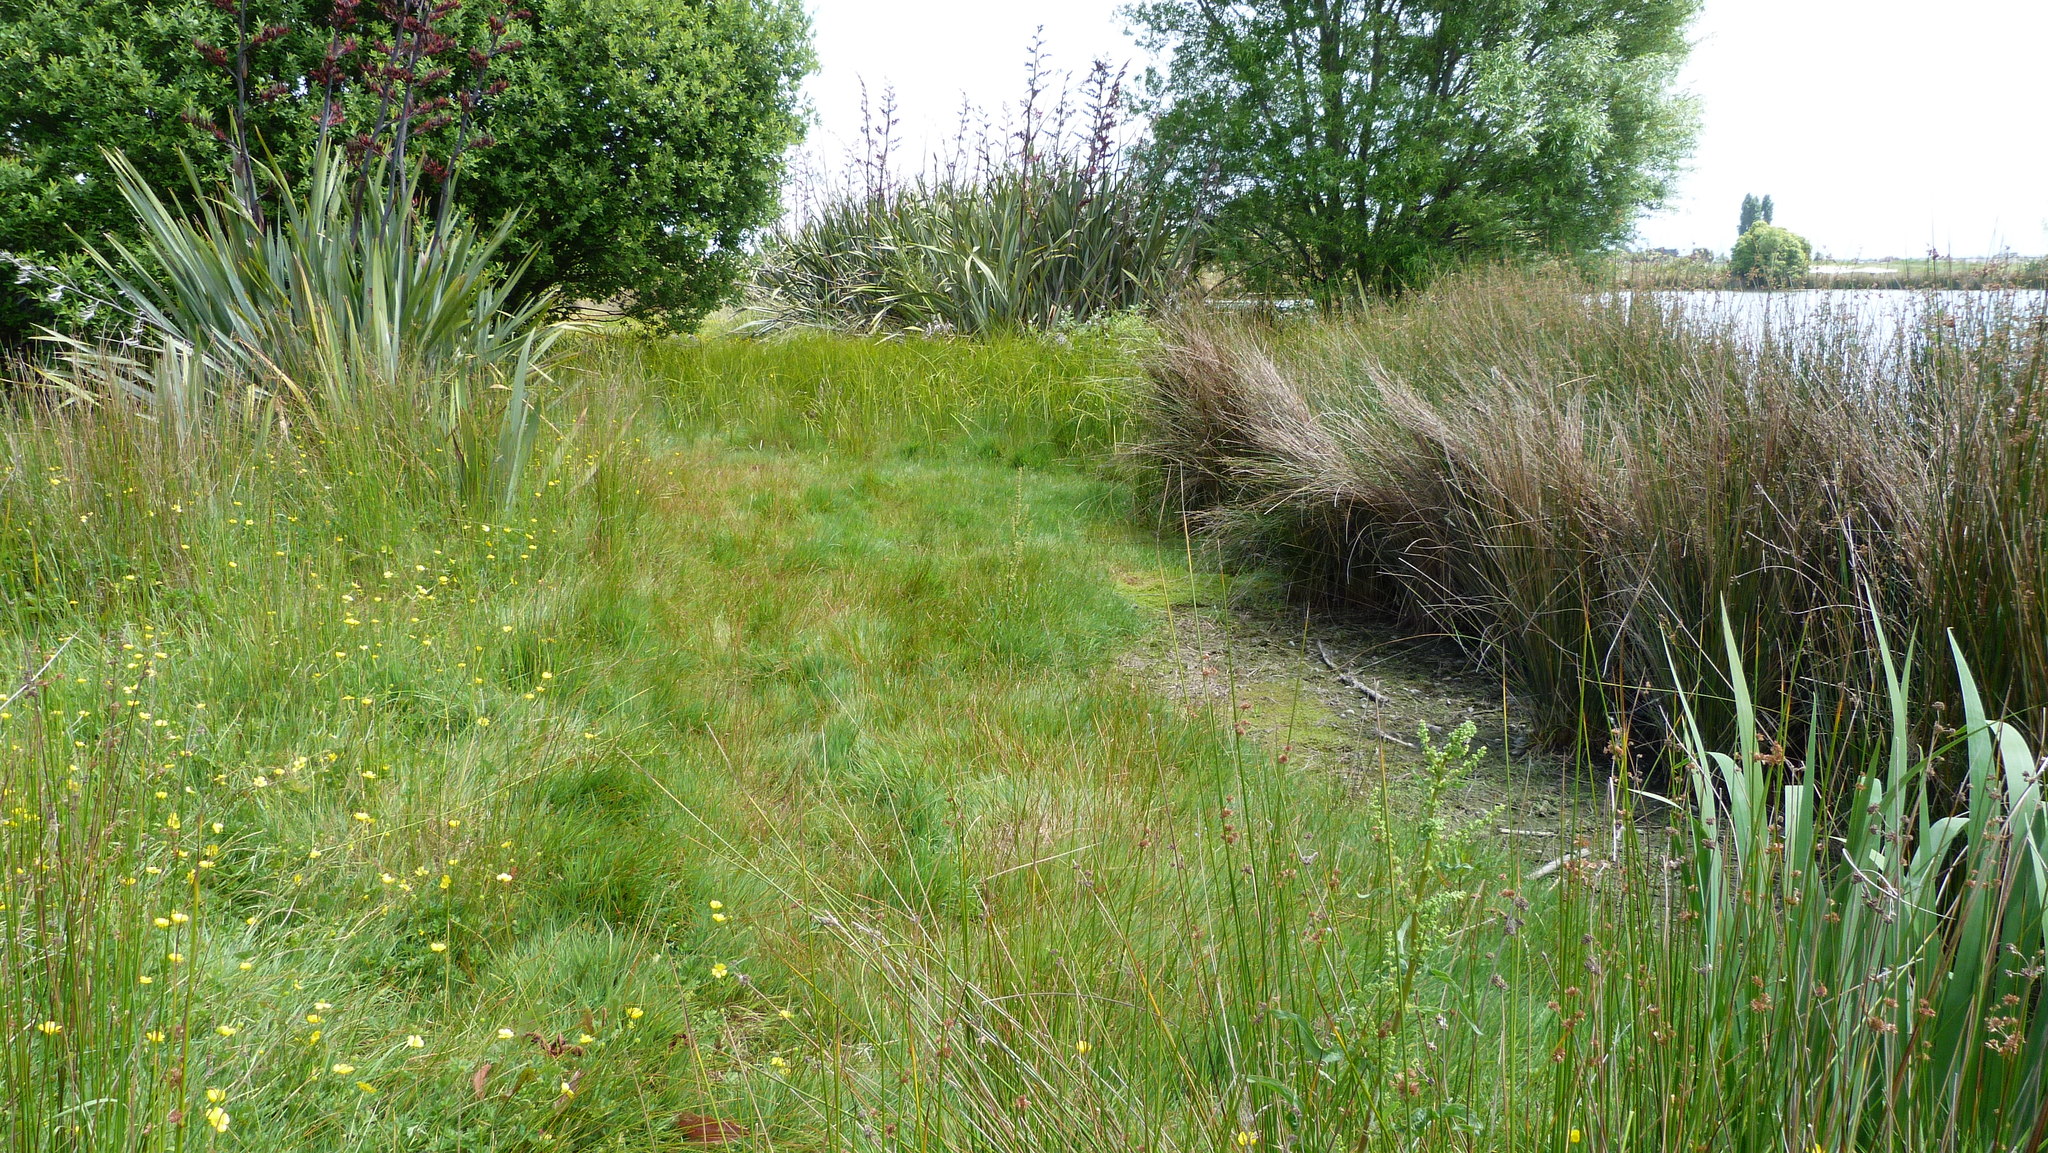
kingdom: Plantae
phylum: Tracheophyta
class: Liliopsida
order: Poales
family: Cyperaceae
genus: Carex
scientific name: Carex geminata
